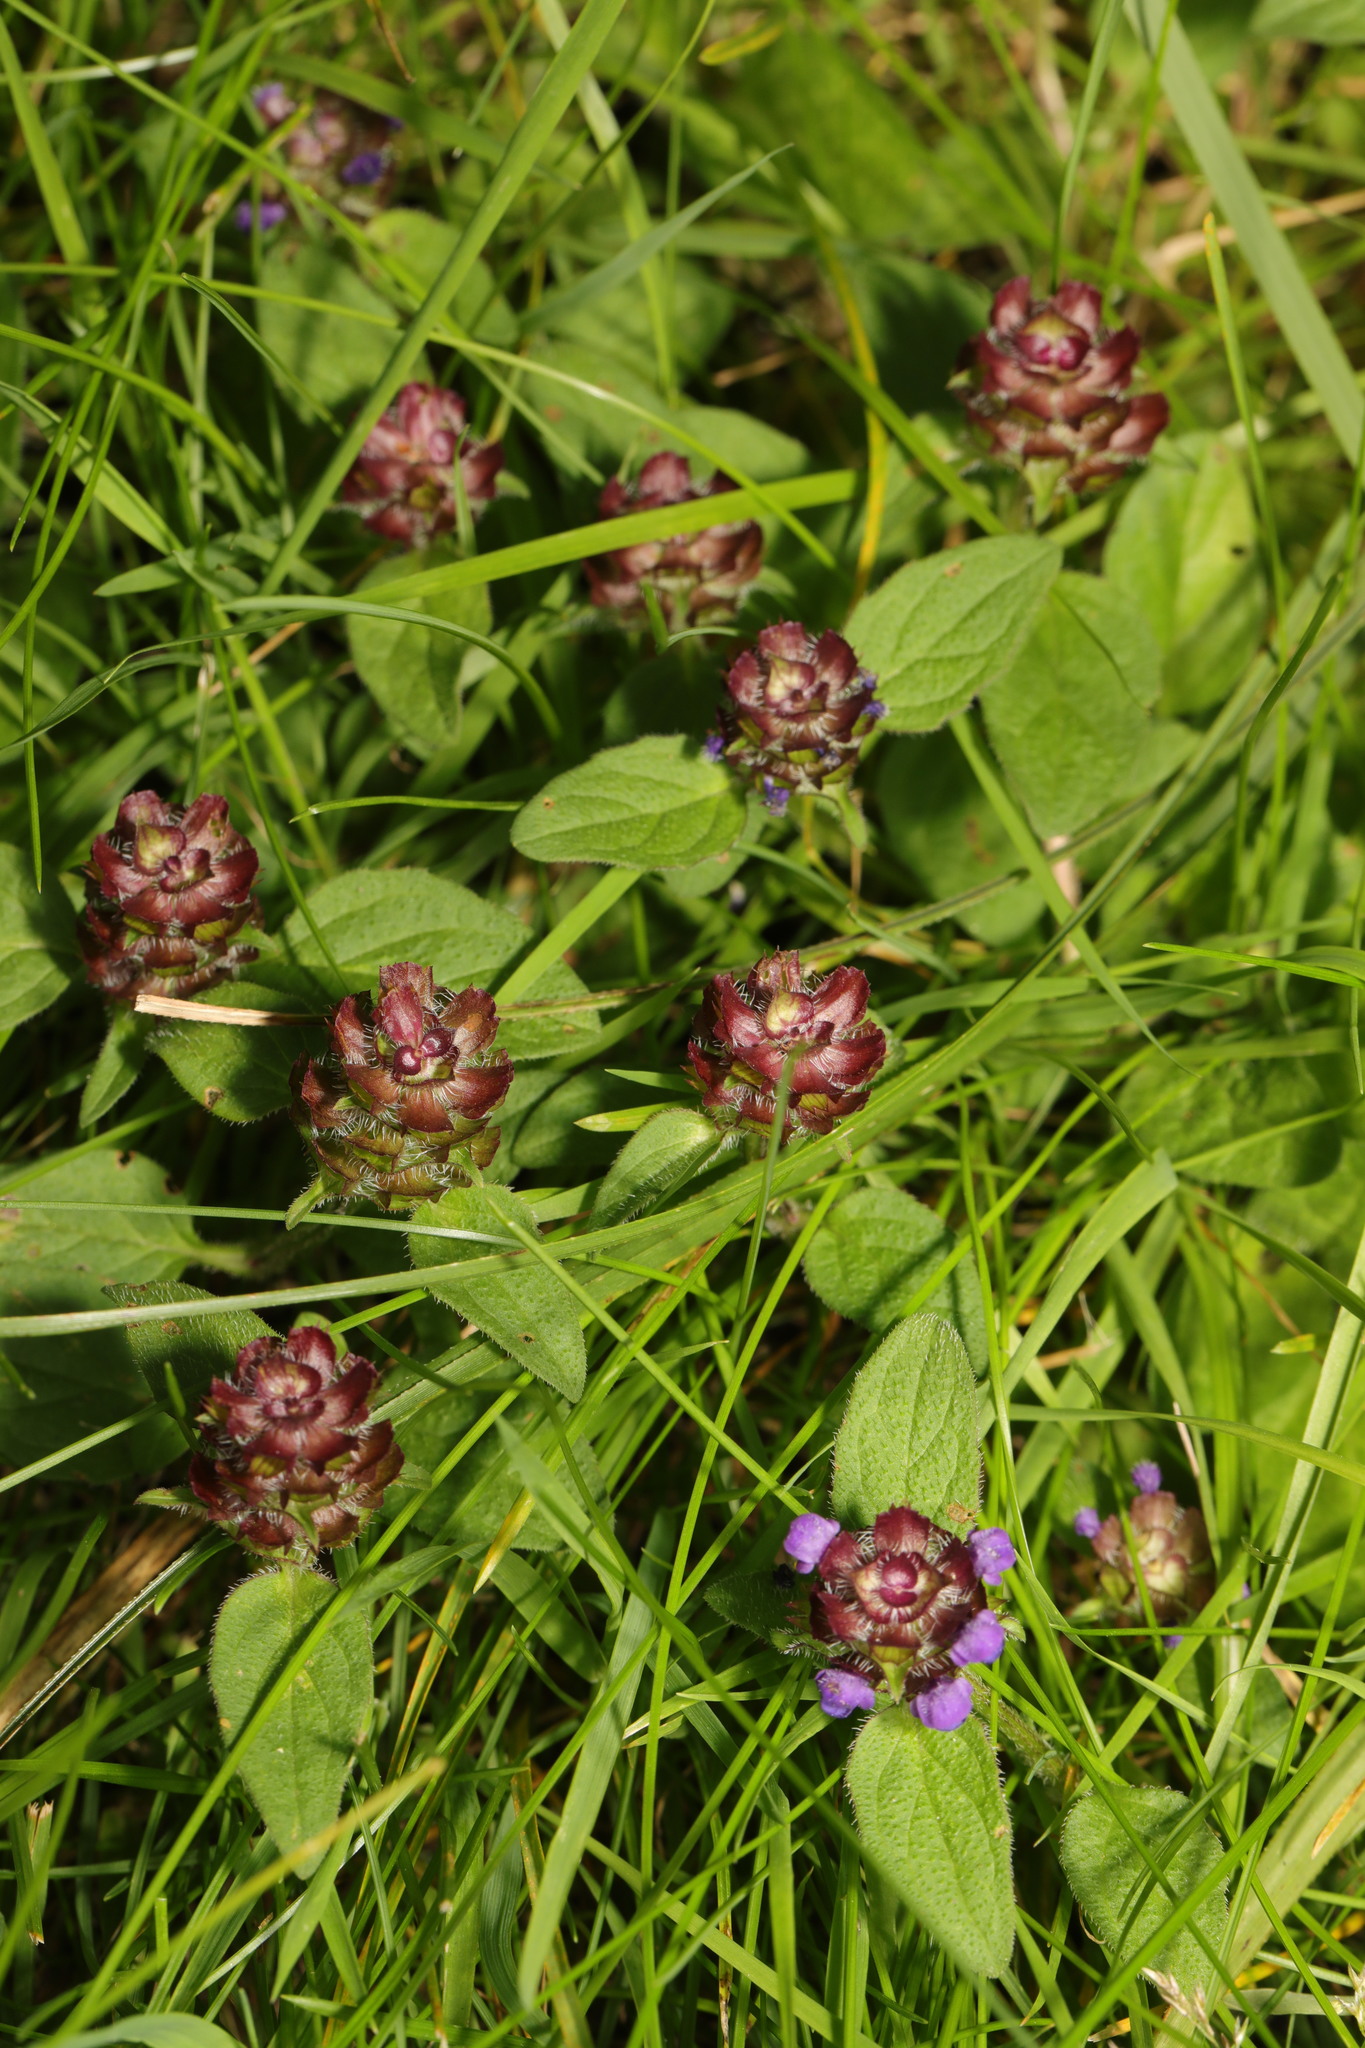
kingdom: Plantae
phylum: Tracheophyta
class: Magnoliopsida
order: Lamiales
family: Lamiaceae
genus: Prunella
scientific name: Prunella vulgaris
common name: Heal-all
